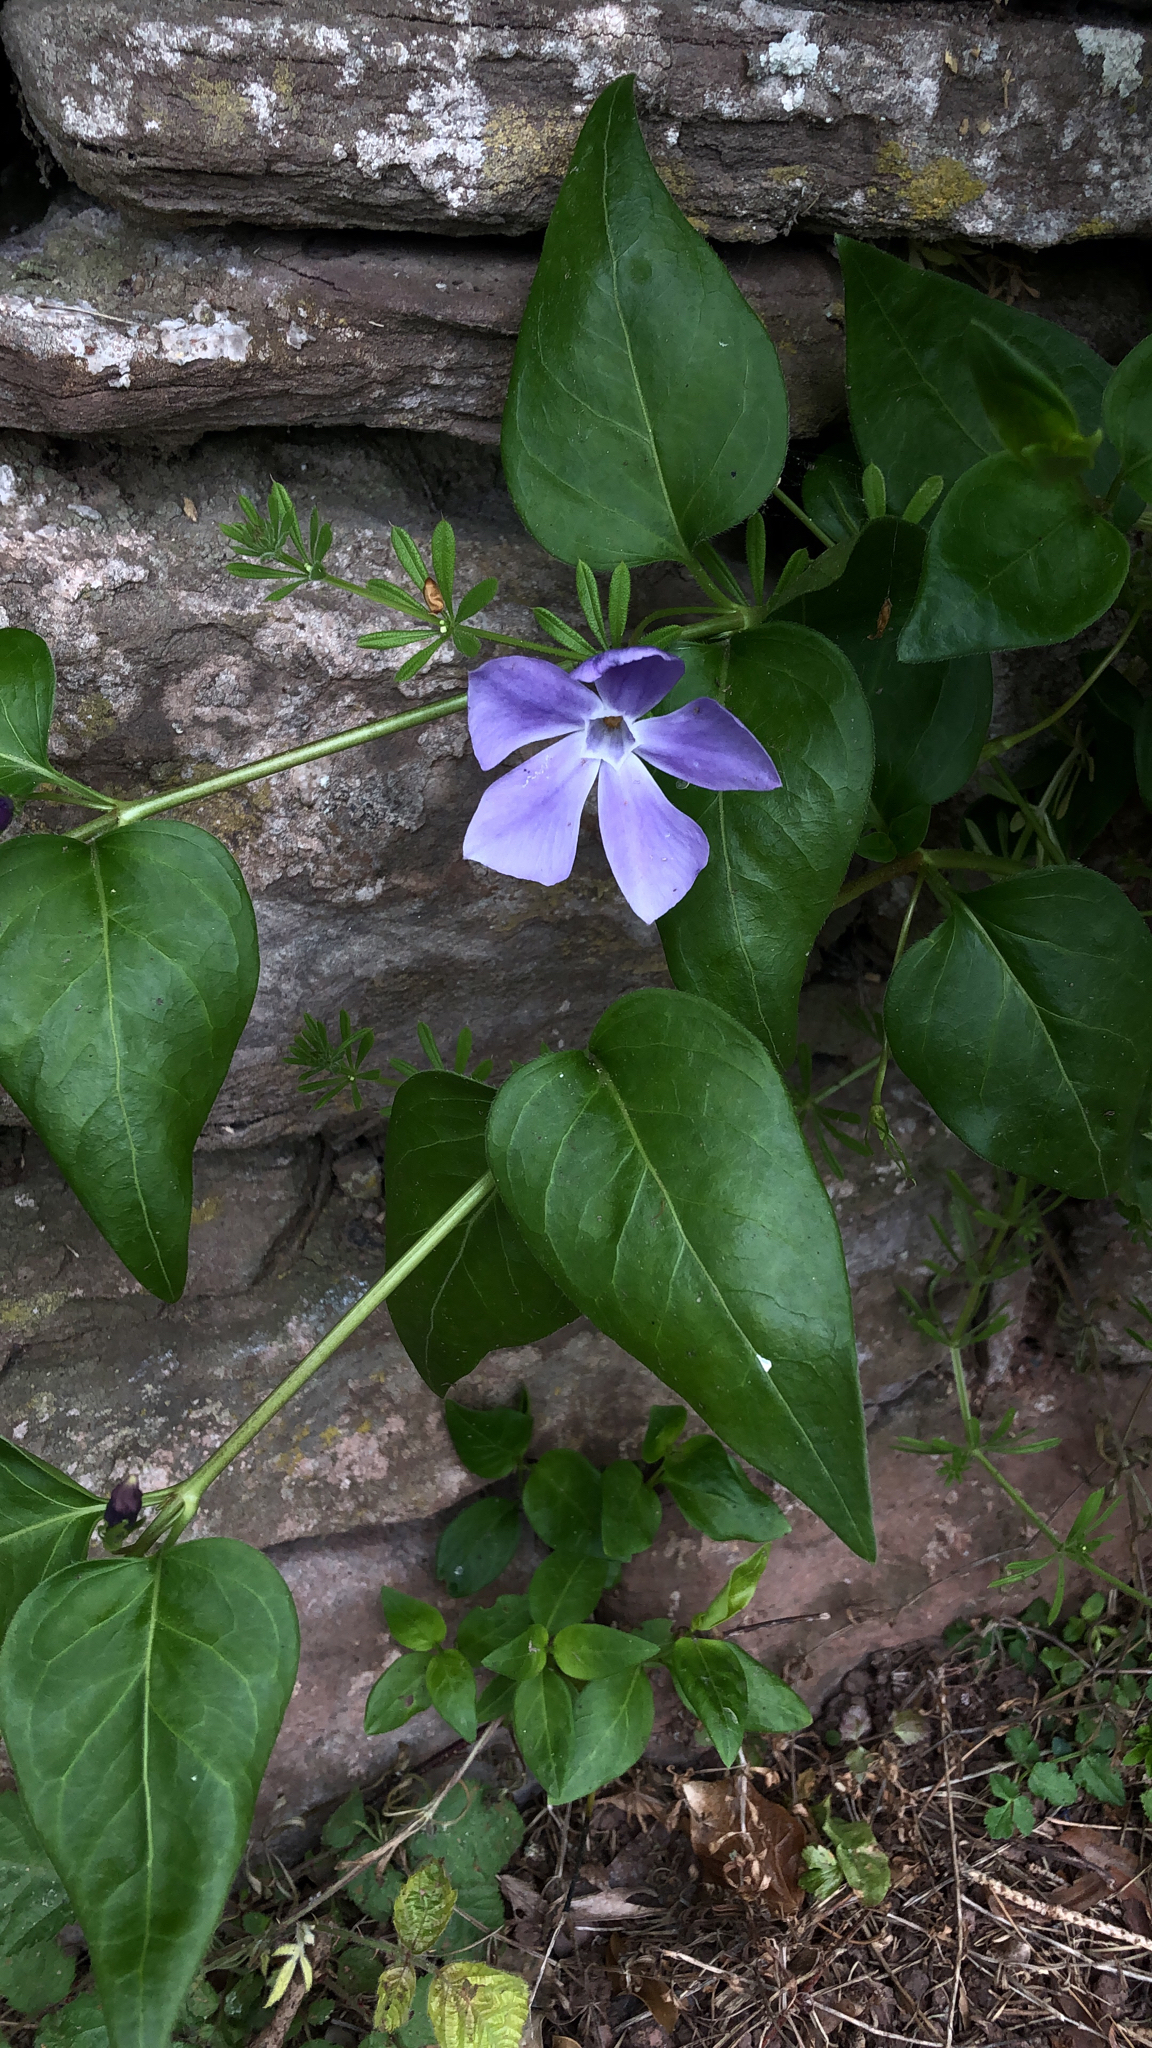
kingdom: Plantae
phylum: Tracheophyta
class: Magnoliopsida
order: Gentianales
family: Apocynaceae
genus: Vinca
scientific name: Vinca major
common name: Greater periwinkle
